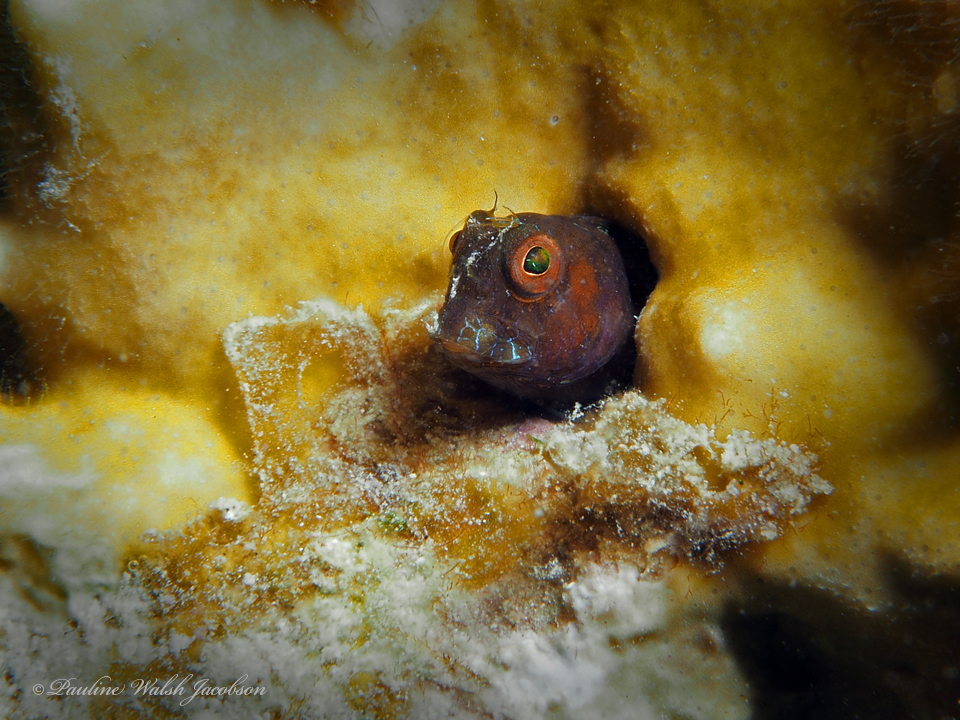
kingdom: Animalia
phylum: Chordata
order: Perciformes
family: Blenniidae
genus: Parablennius
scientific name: Parablennius marmoreus
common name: Seaweed blenny
